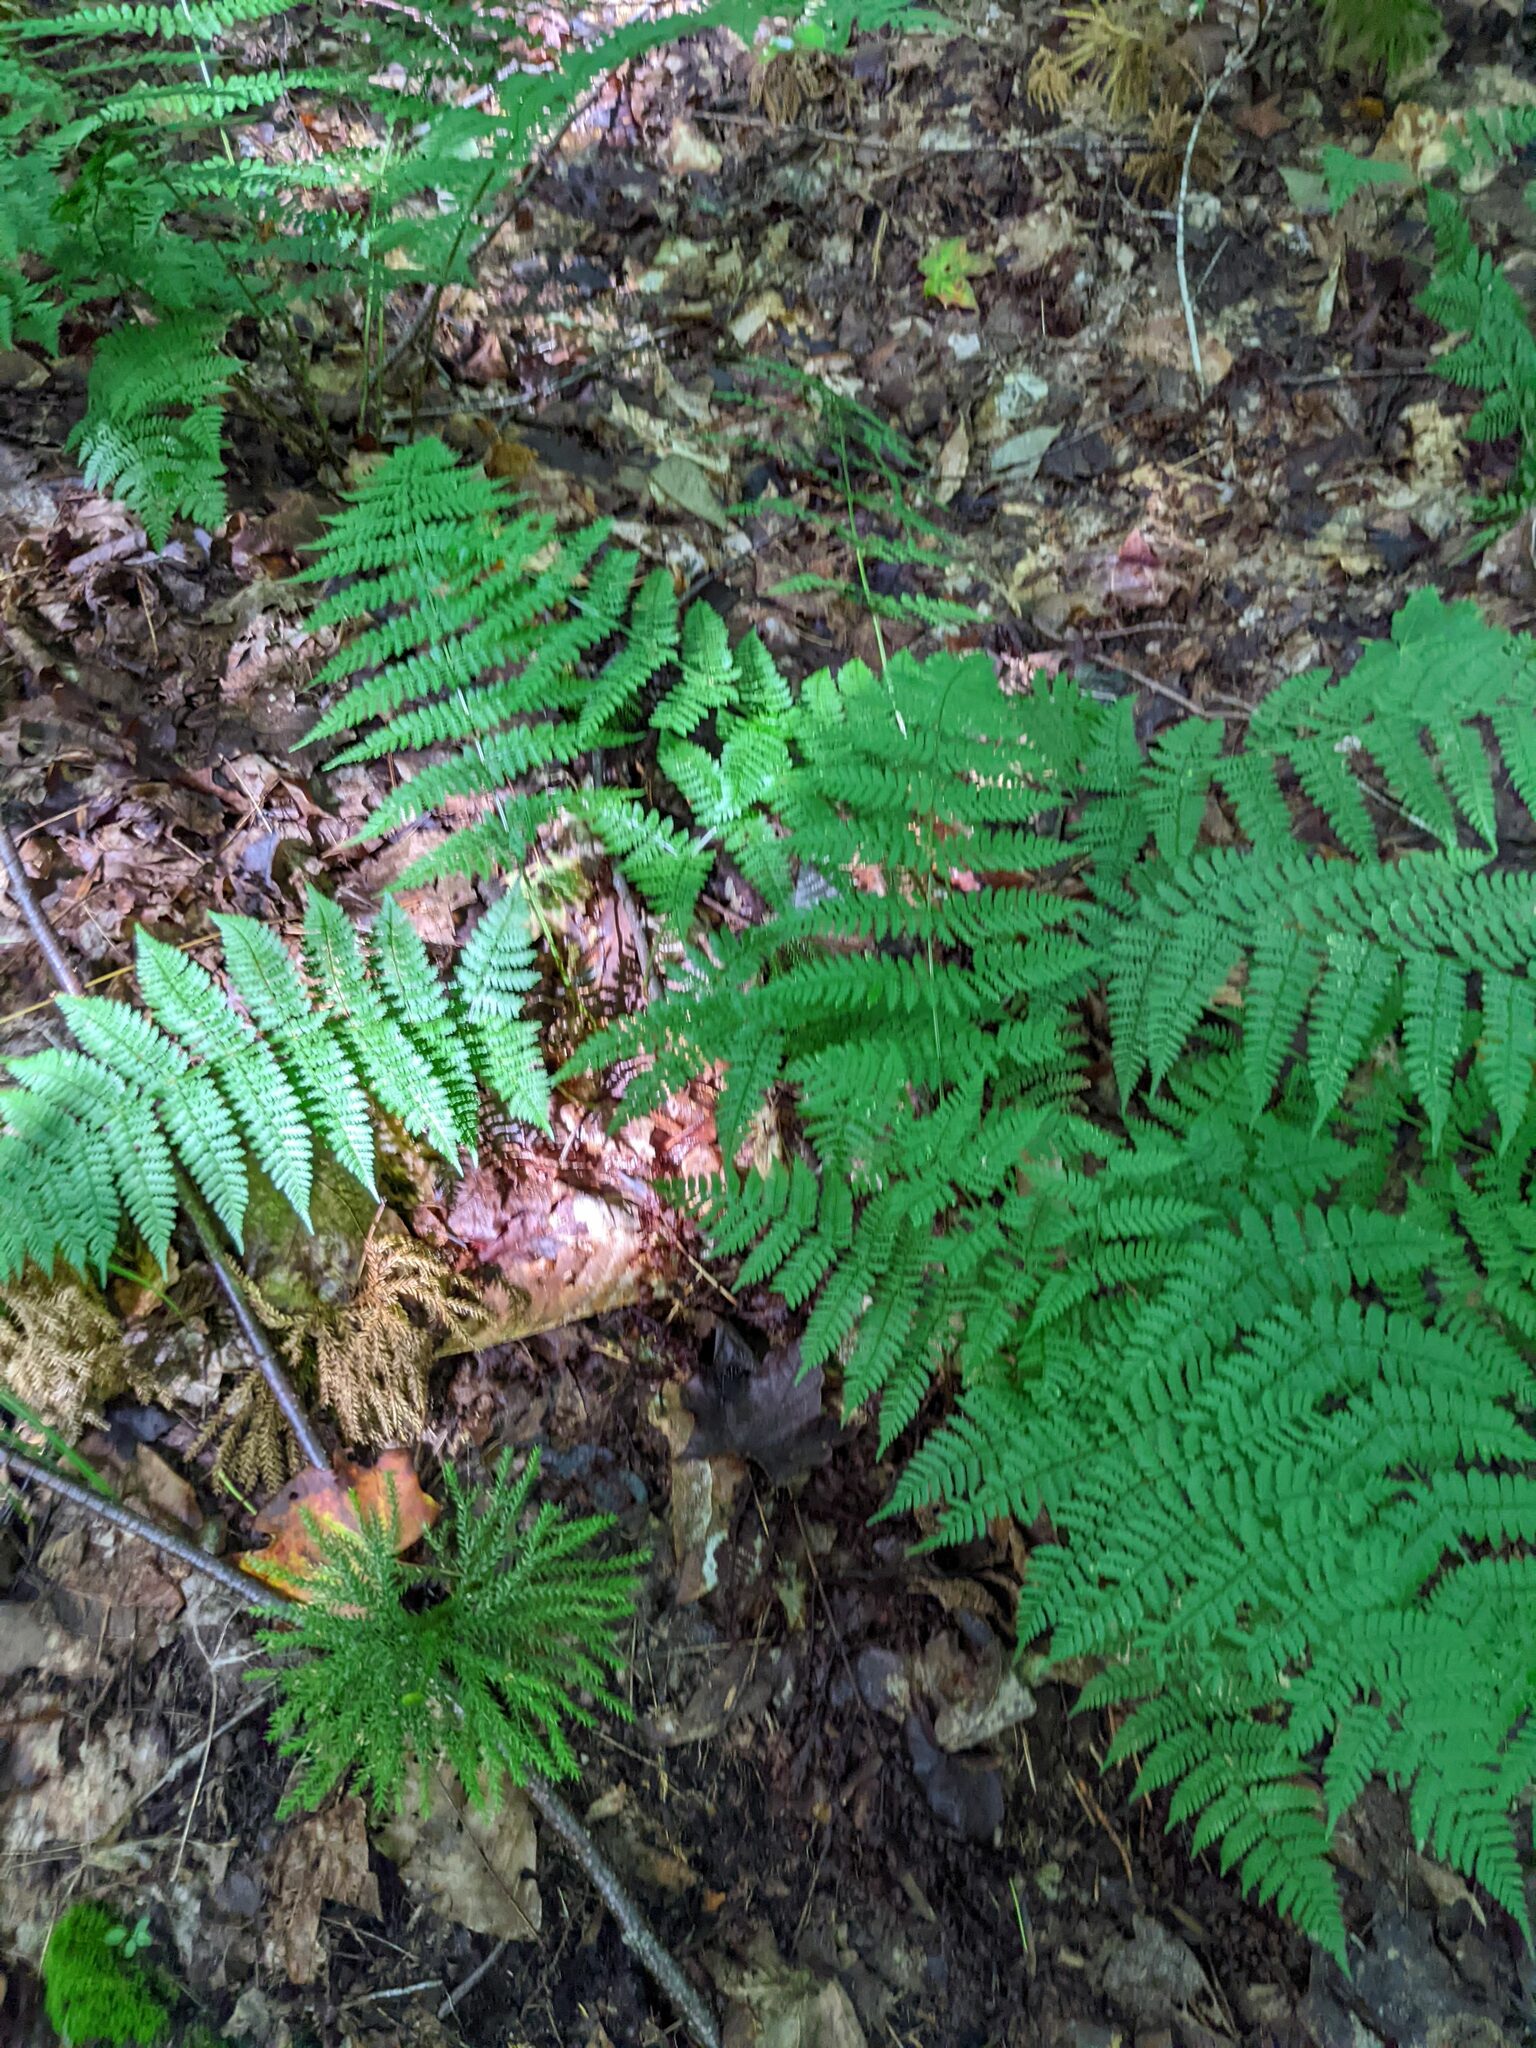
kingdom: Plantae
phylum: Tracheophyta
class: Polypodiopsida
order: Polypodiales
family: Dryopteridaceae
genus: Dryopteris
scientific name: Dryopteris intermedia
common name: Evergreen wood fern
